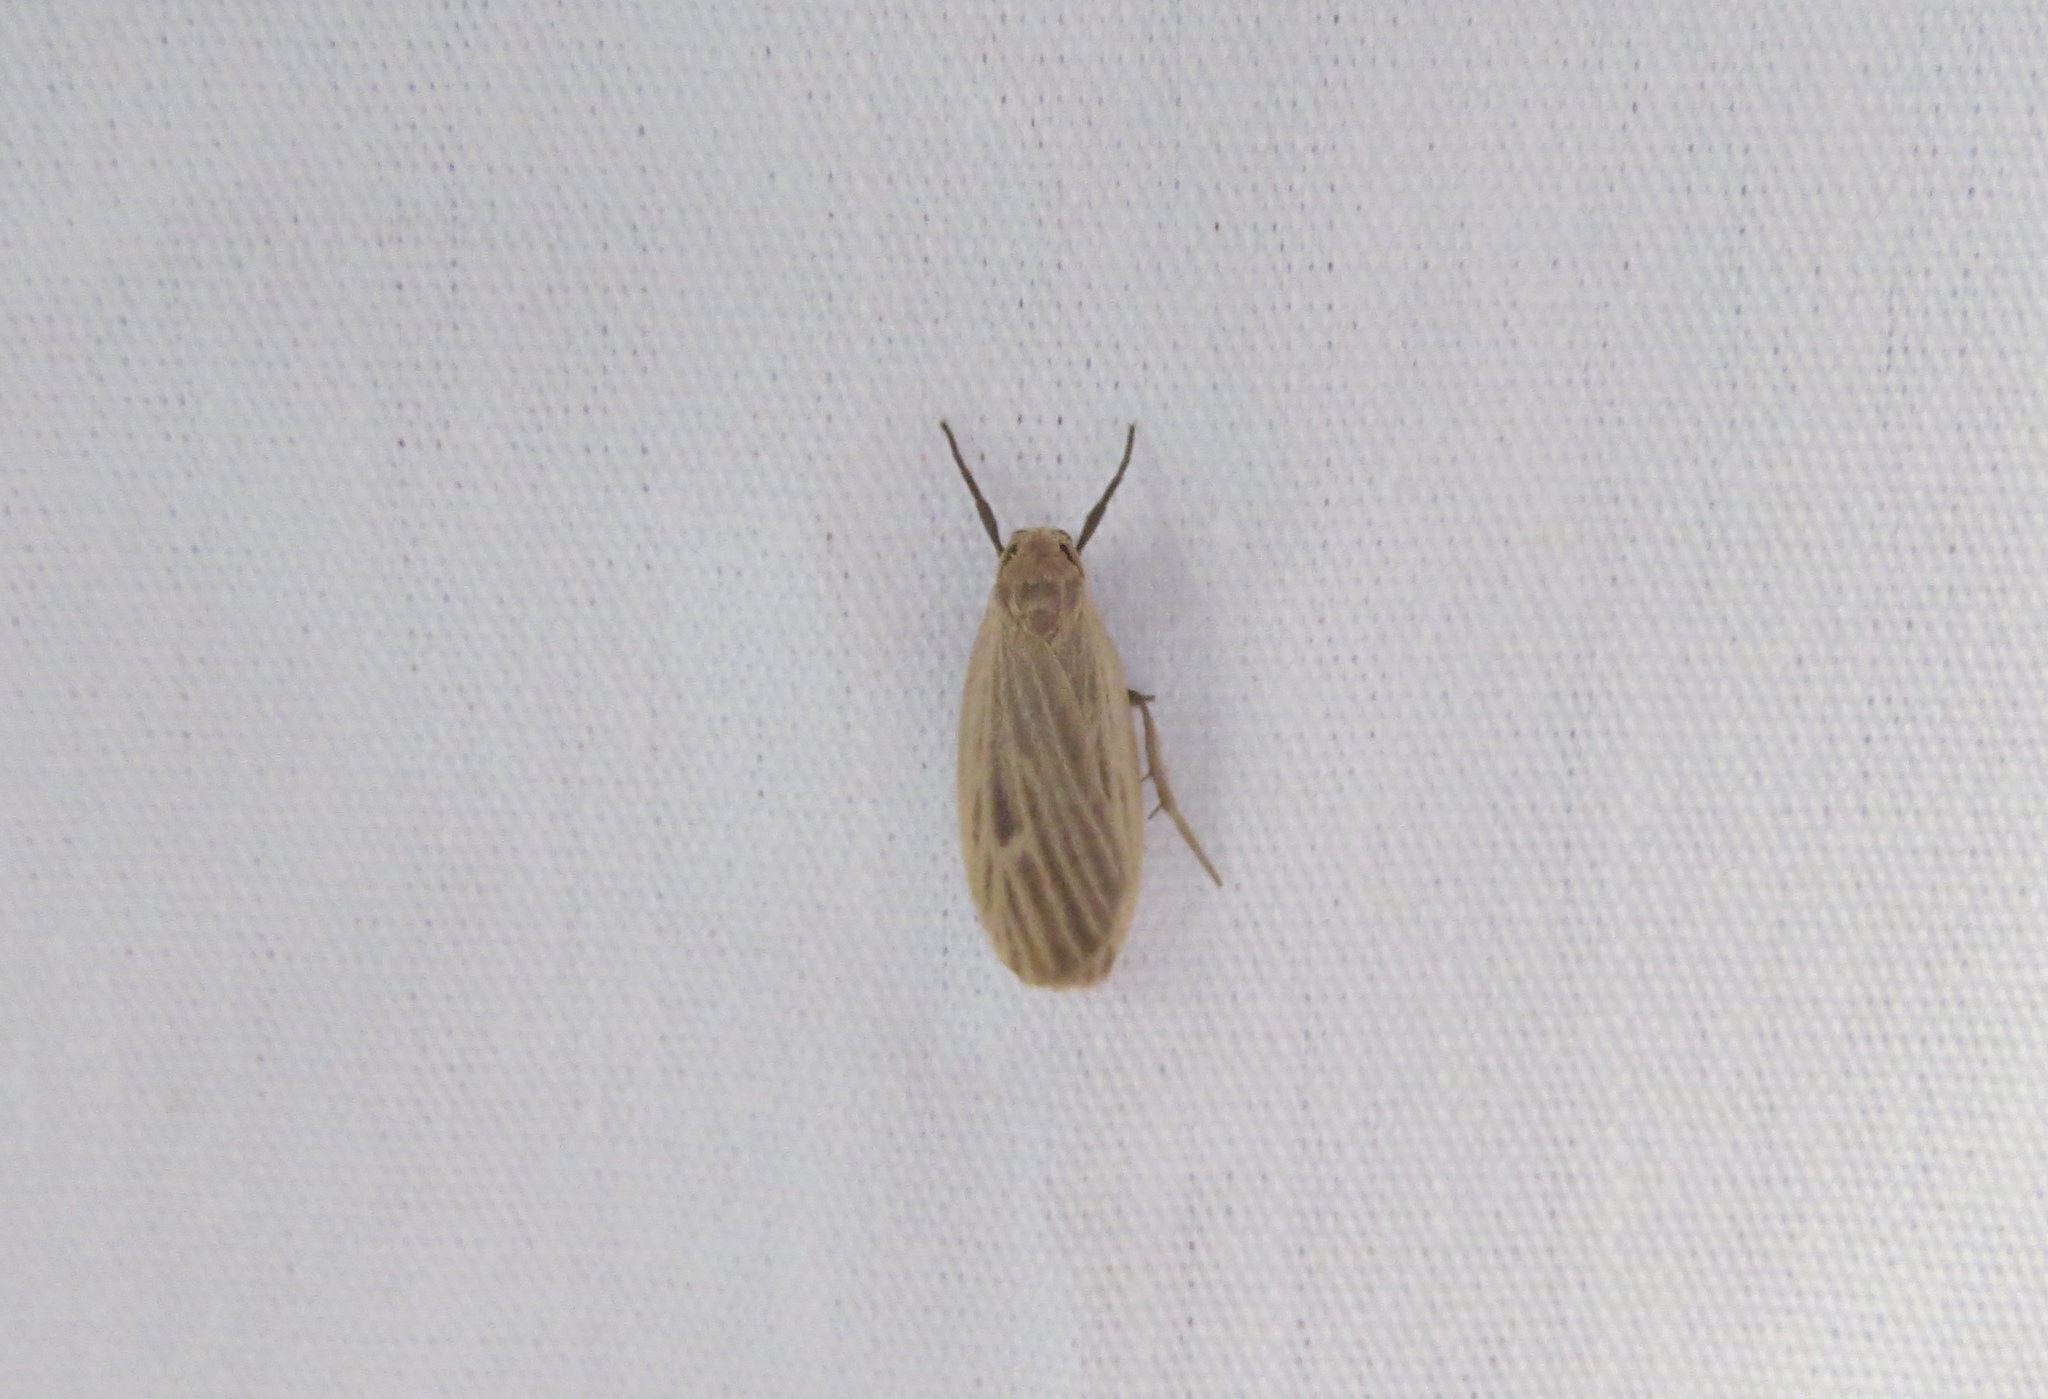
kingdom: Animalia
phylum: Arthropoda
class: Insecta
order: Lepidoptera
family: Erebidae
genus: Crambidia
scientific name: Crambidia pallida
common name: Pale lichen moth
